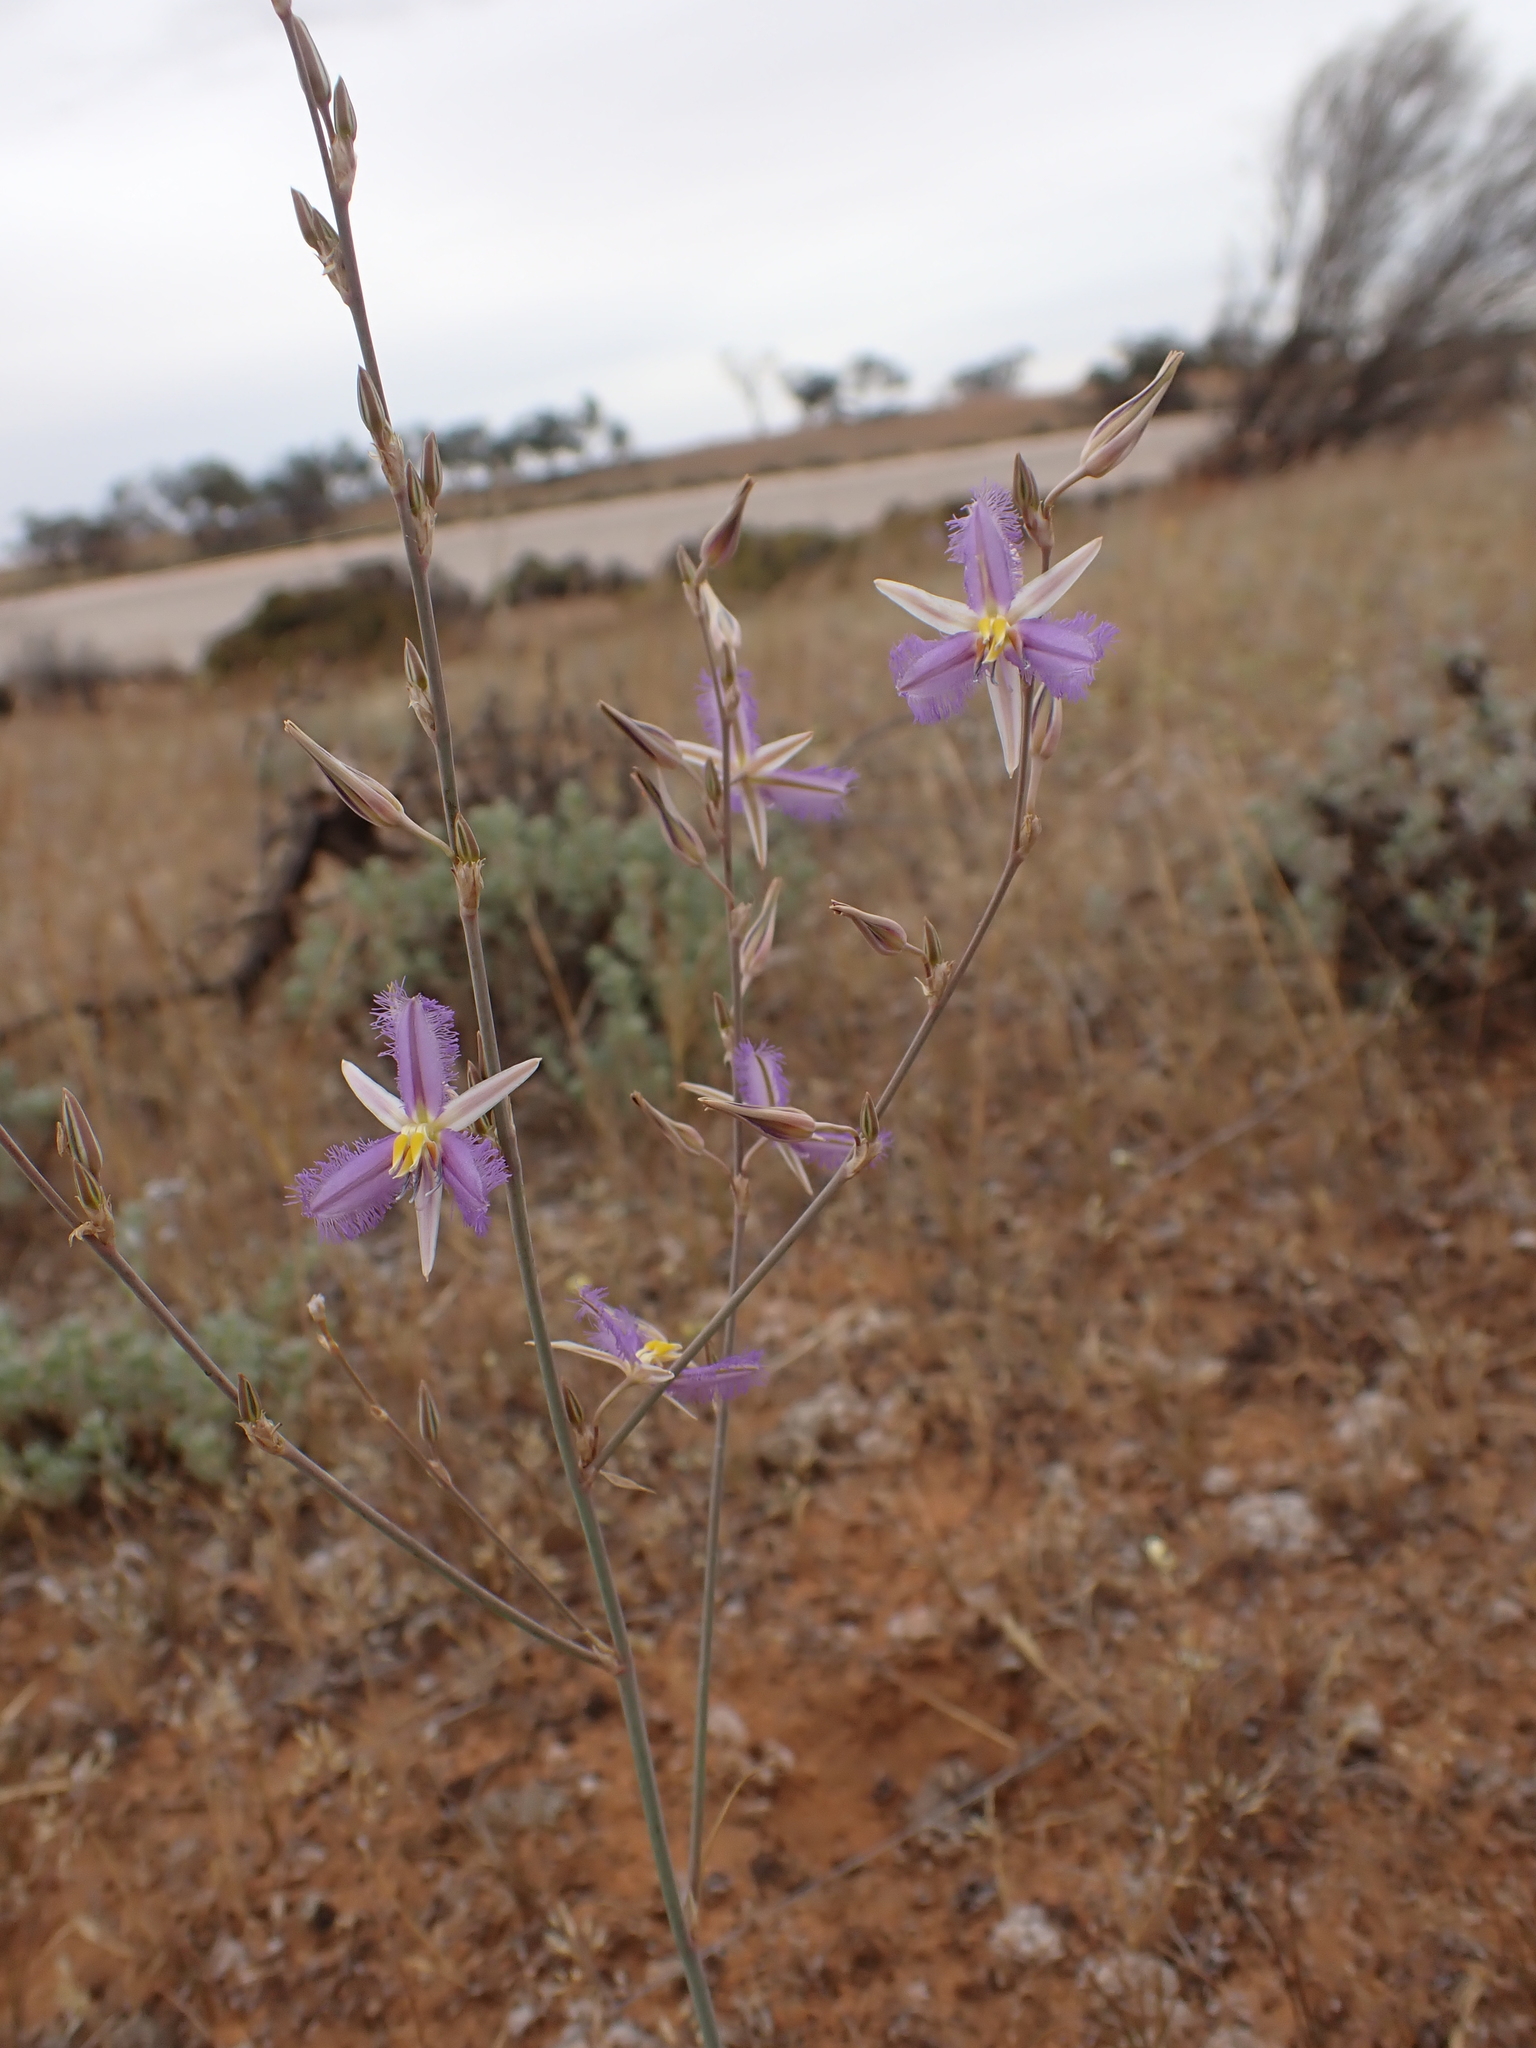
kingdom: Plantae
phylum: Tracheophyta
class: Liliopsida
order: Asparagales
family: Asparagaceae
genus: Thysanotus
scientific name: Thysanotus baueri
